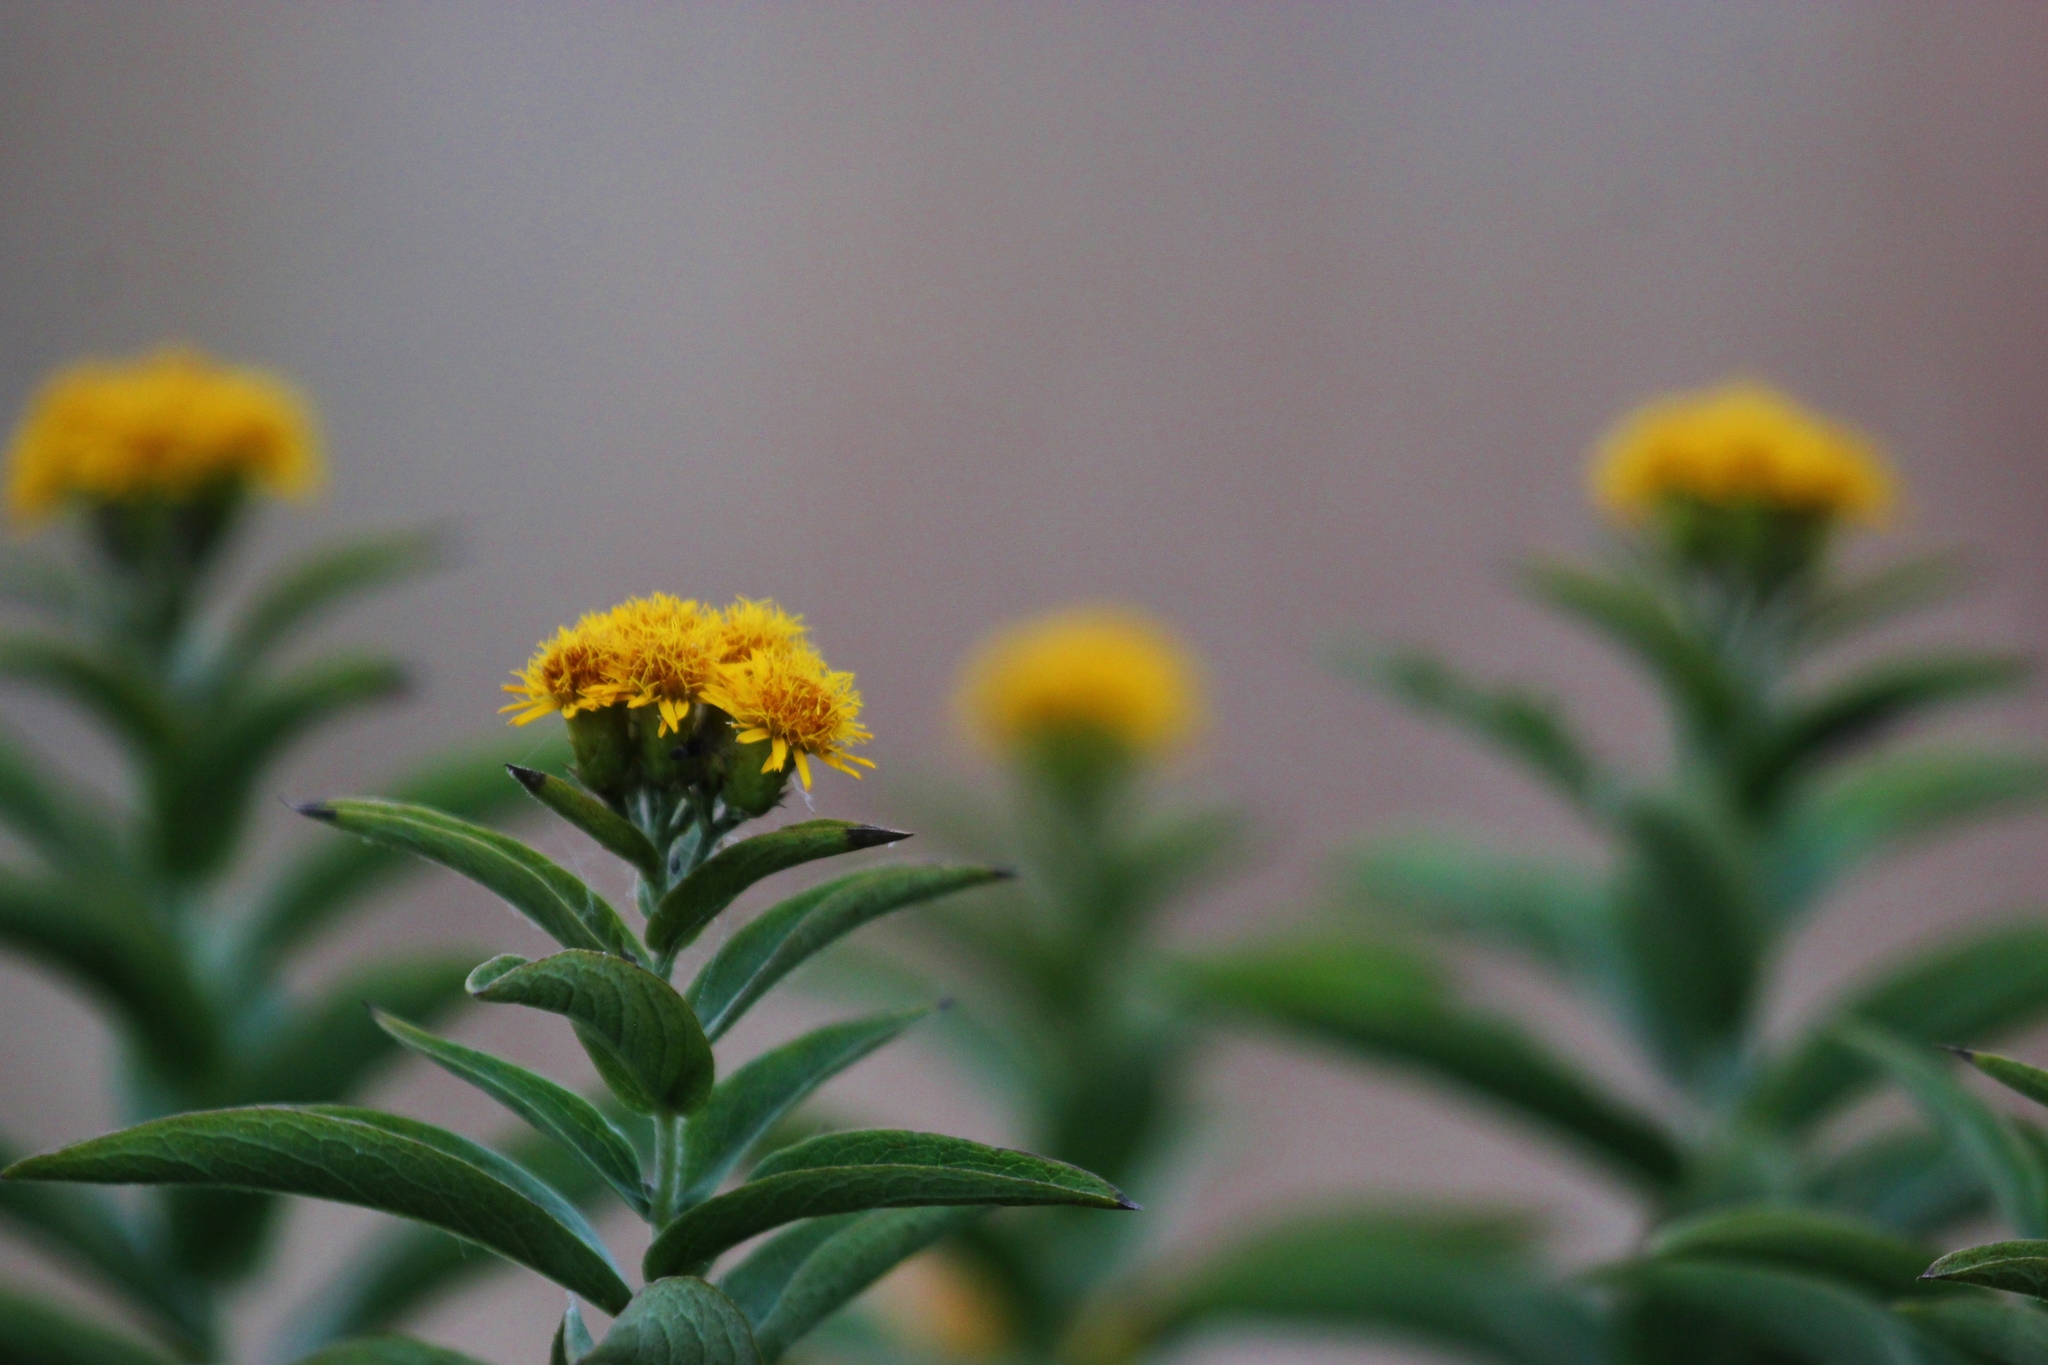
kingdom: Plantae
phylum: Tracheophyta
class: Magnoliopsida
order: Asterales
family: Asteraceae
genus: Pentanema
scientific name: Pentanema germanicum
